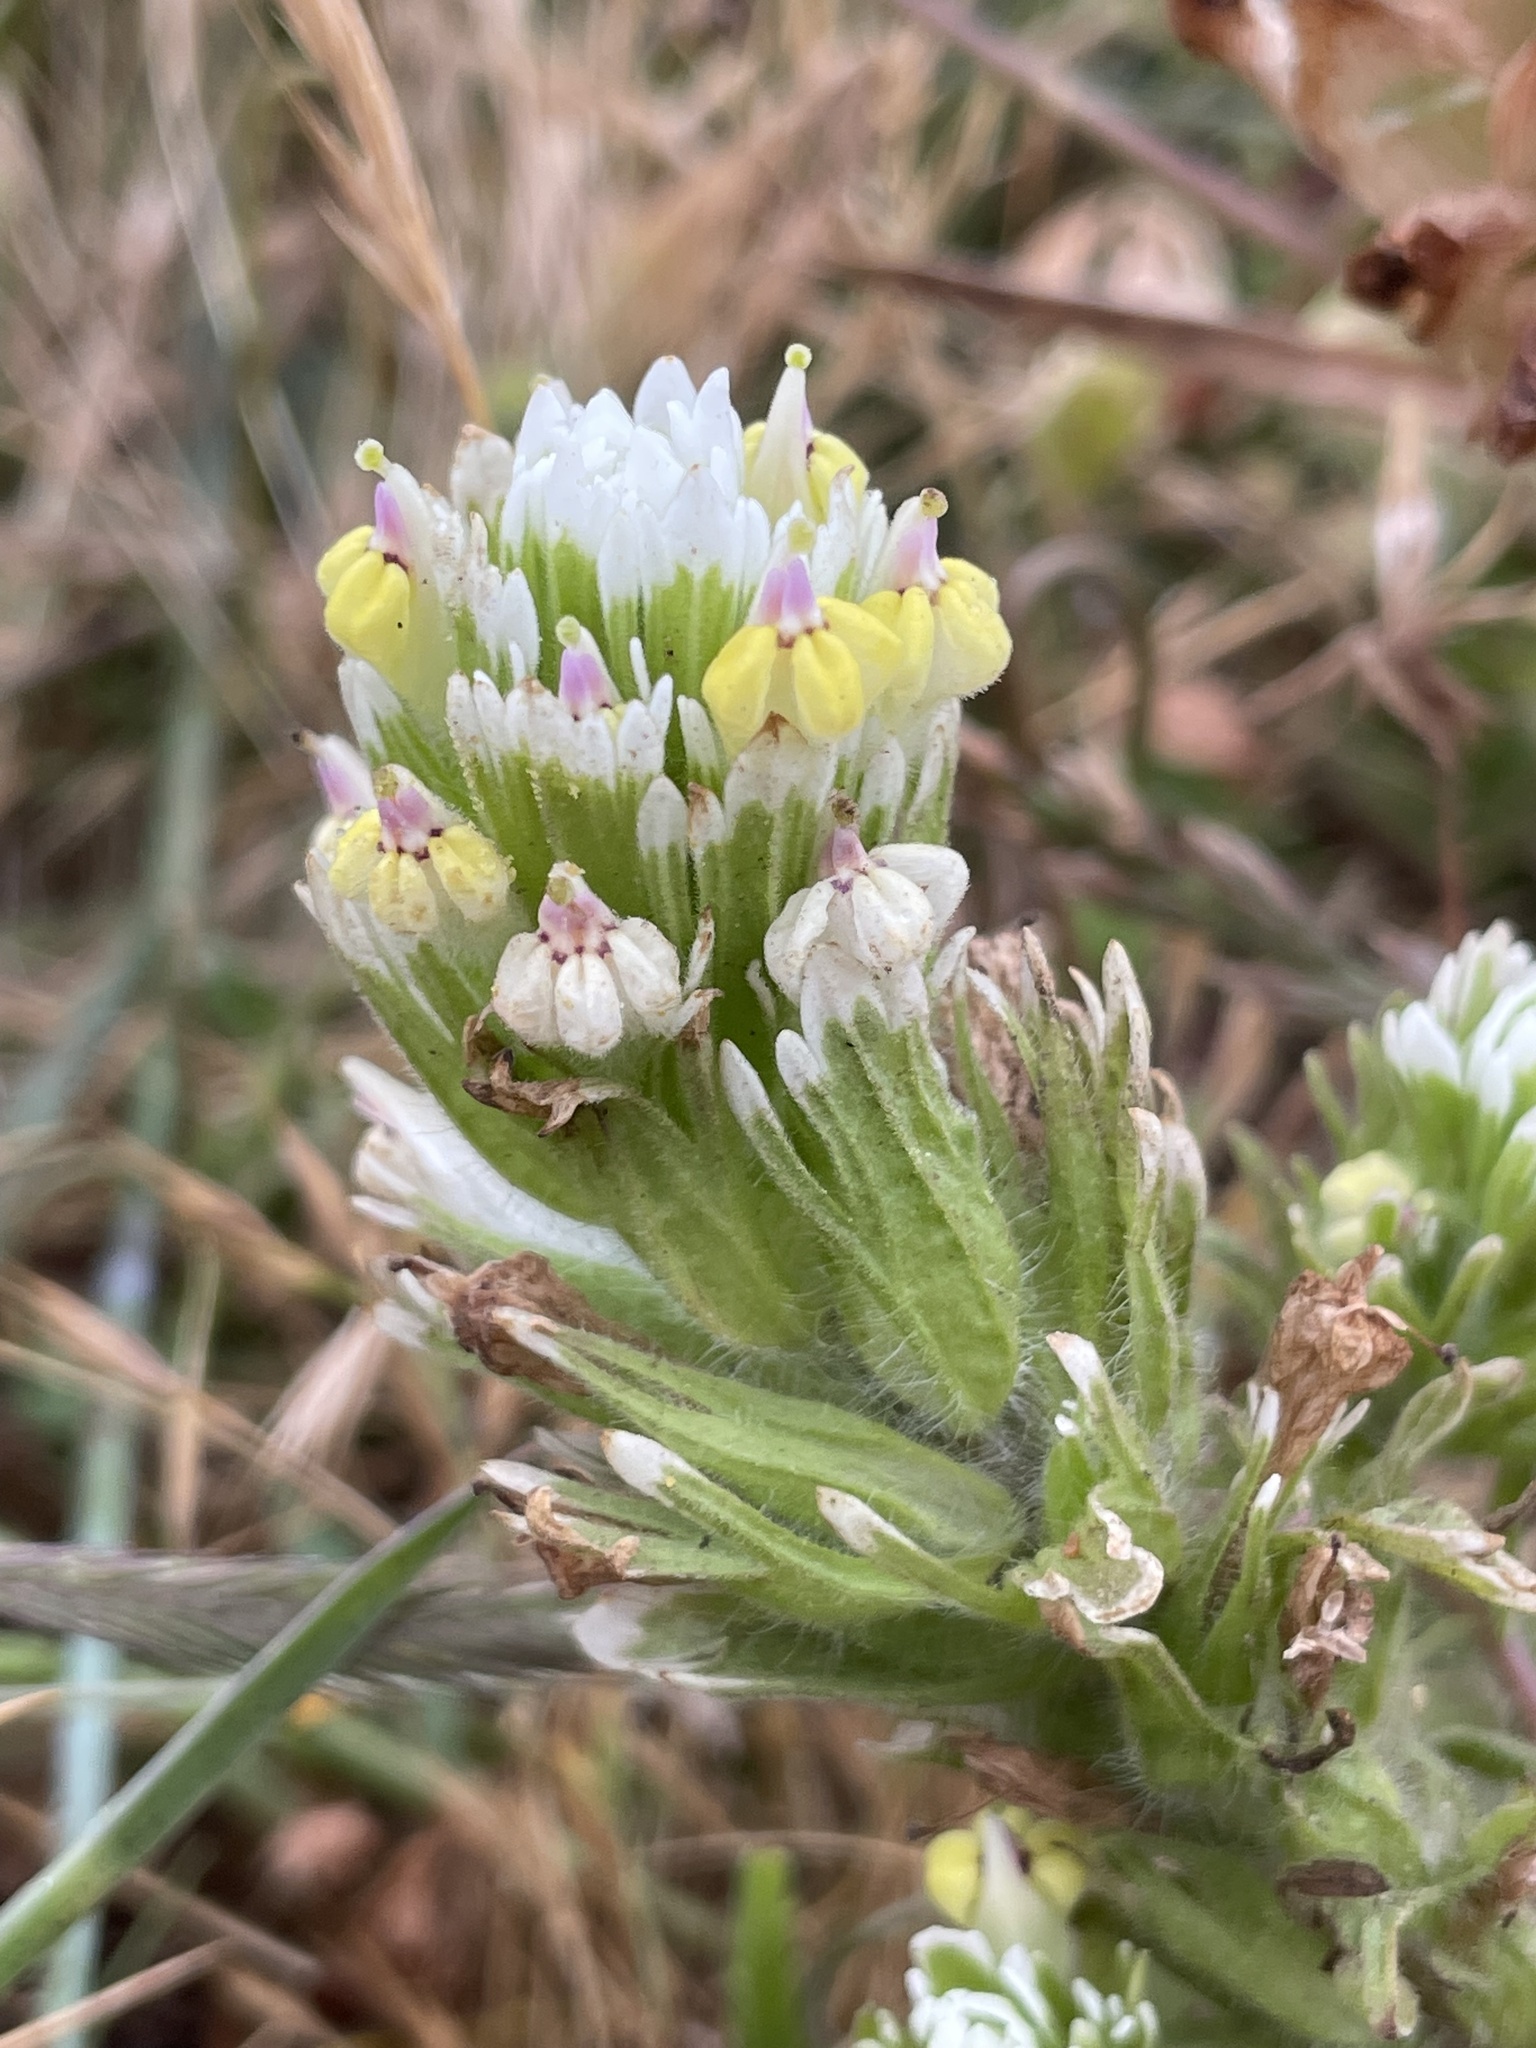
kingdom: Plantae
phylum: Tracheophyta
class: Magnoliopsida
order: Lamiales
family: Orobanchaceae
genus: Castilleja
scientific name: Castilleja ambigua
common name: Johnny-nip
